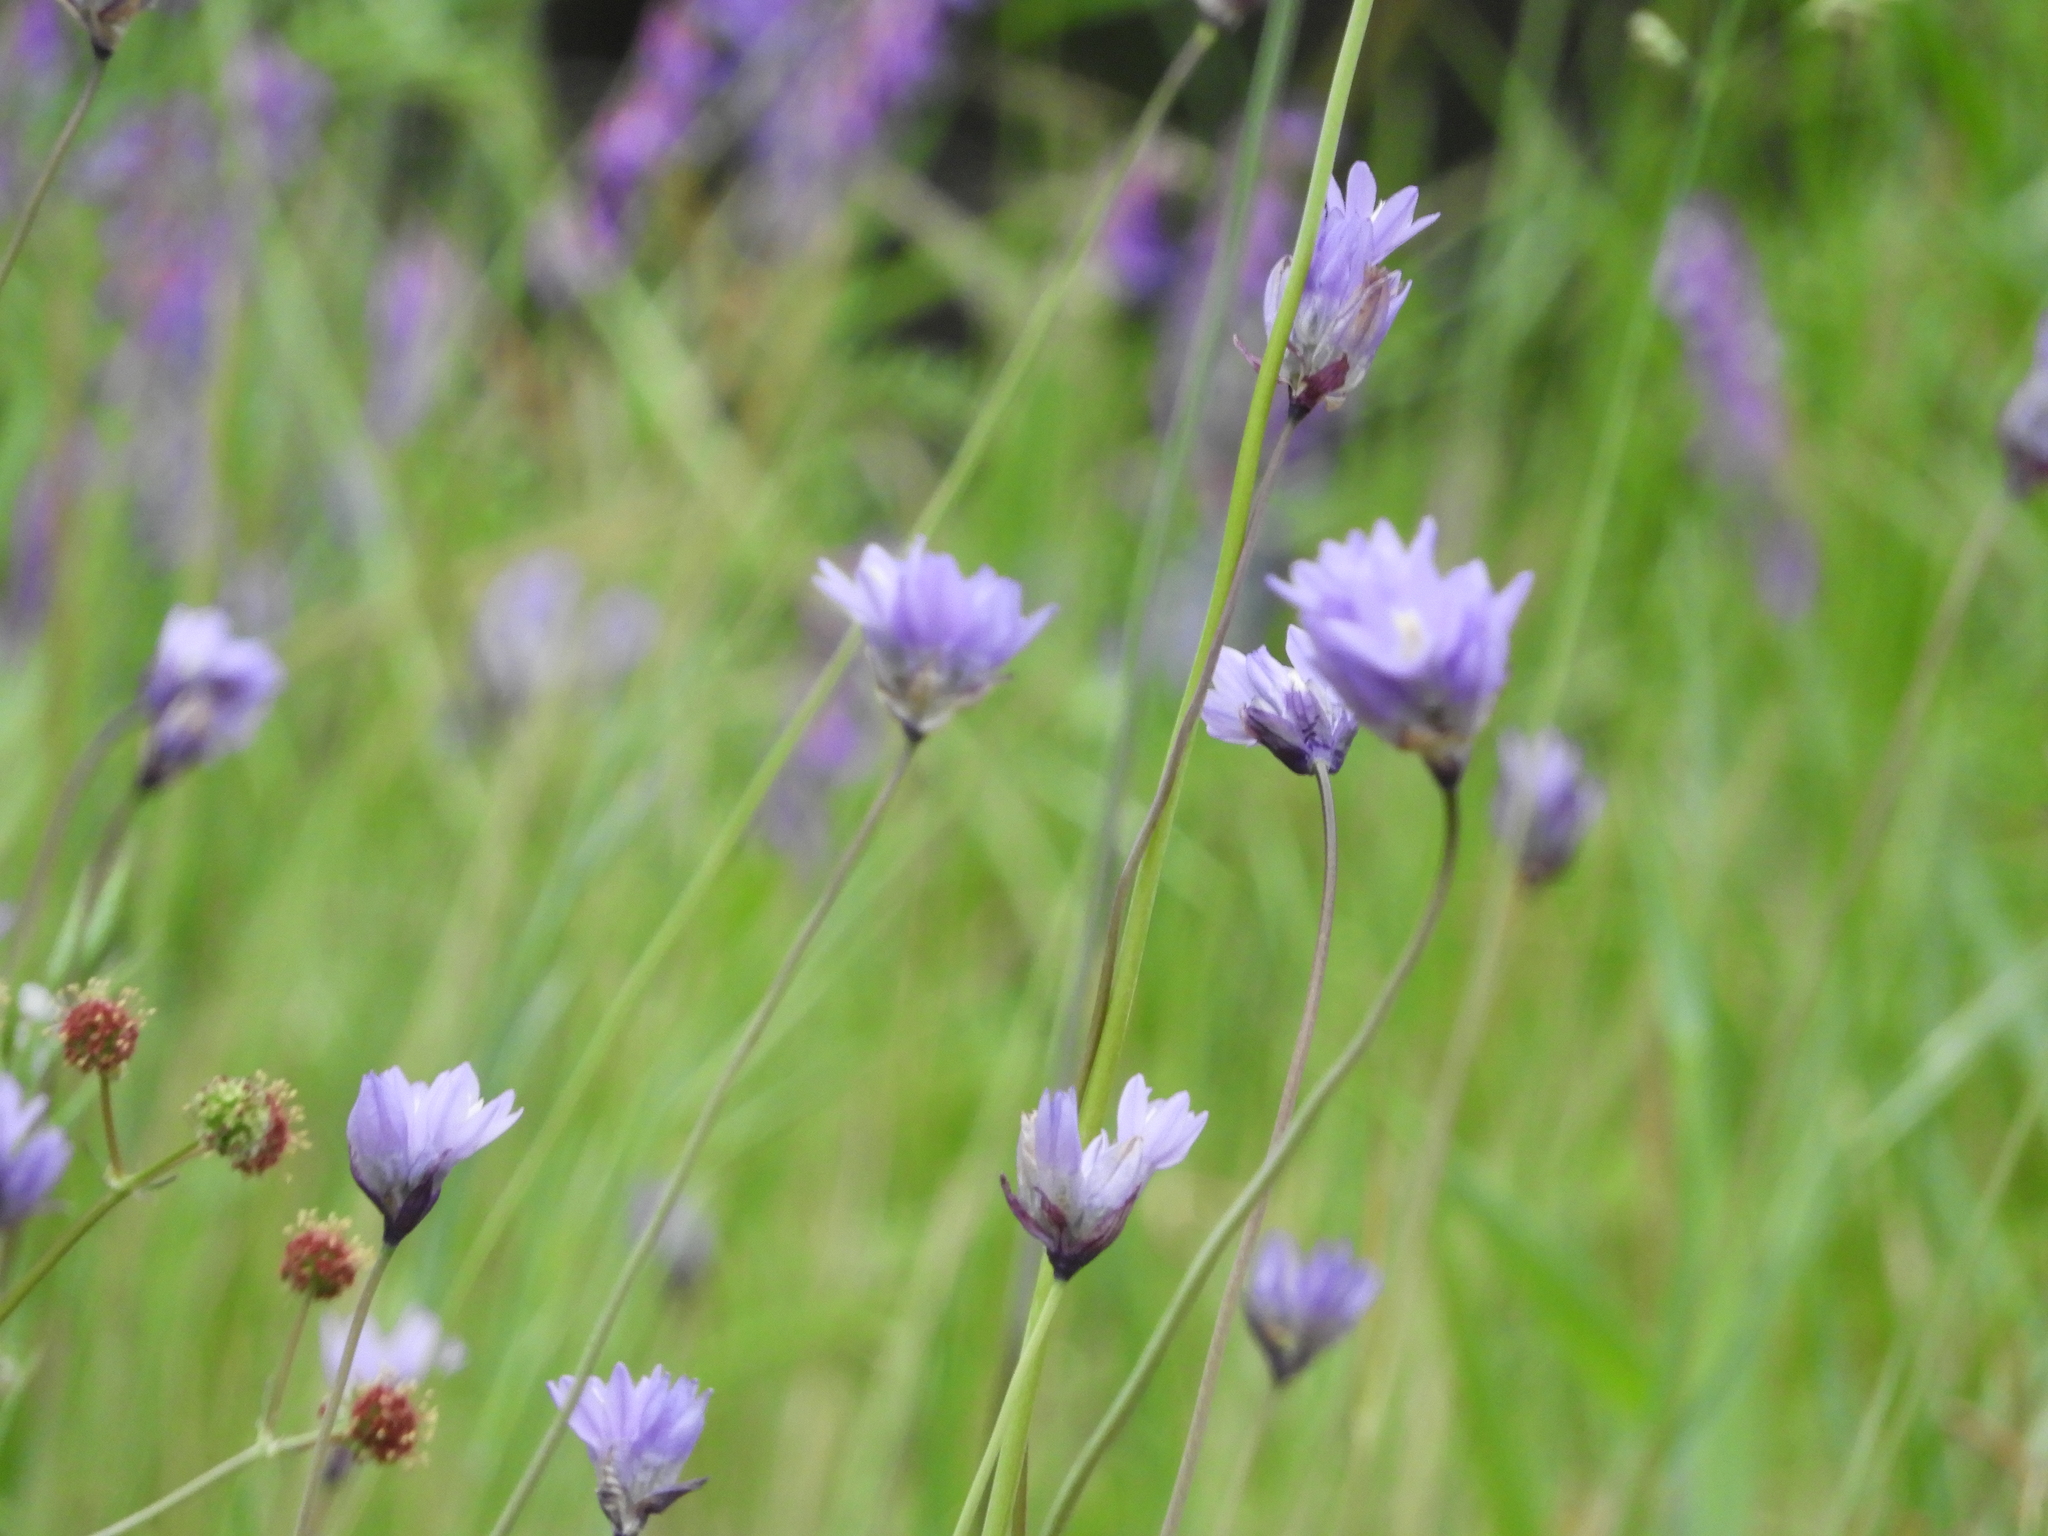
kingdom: Plantae
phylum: Tracheophyta
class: Liliopsida
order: Asparagales
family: Asparagaceae
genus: Dipterostemon
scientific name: Dipterostemon capitatus
